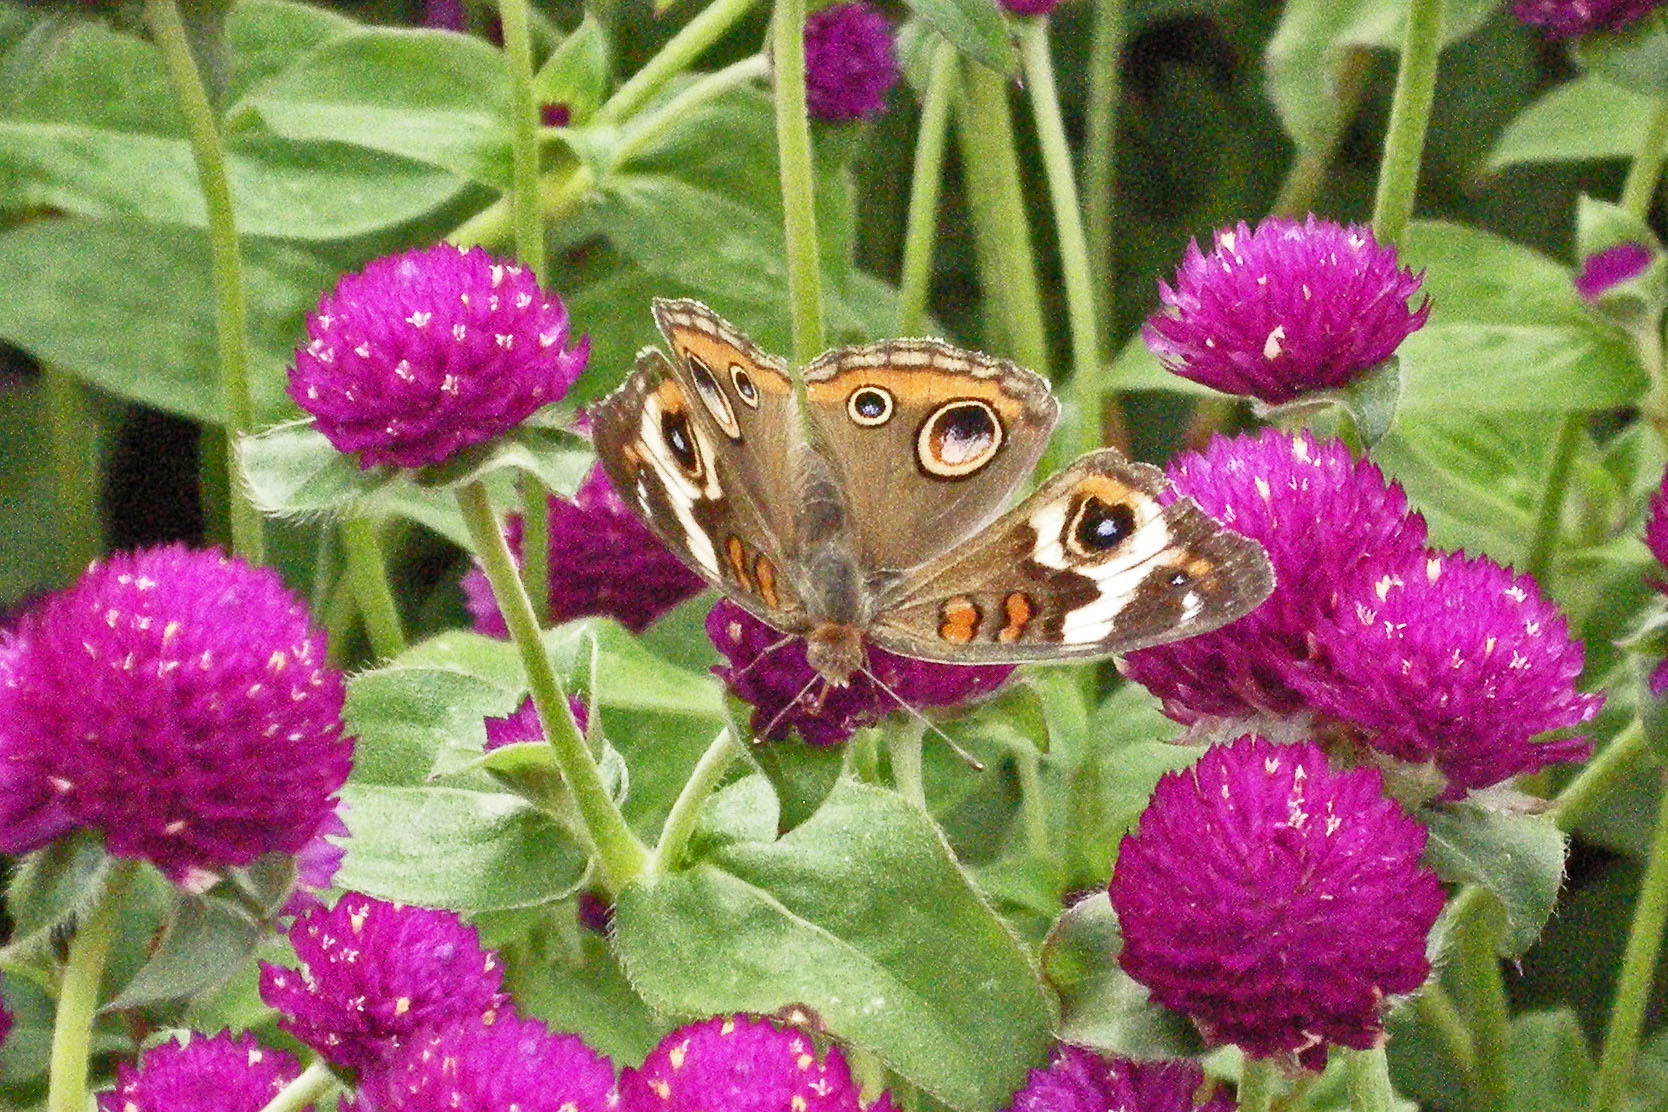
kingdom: Animalia
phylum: Arthropoda
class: Insecta
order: Lepidoptera
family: Nymphalidae
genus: Junonia
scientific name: Junonia coenia
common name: Common buckeye
